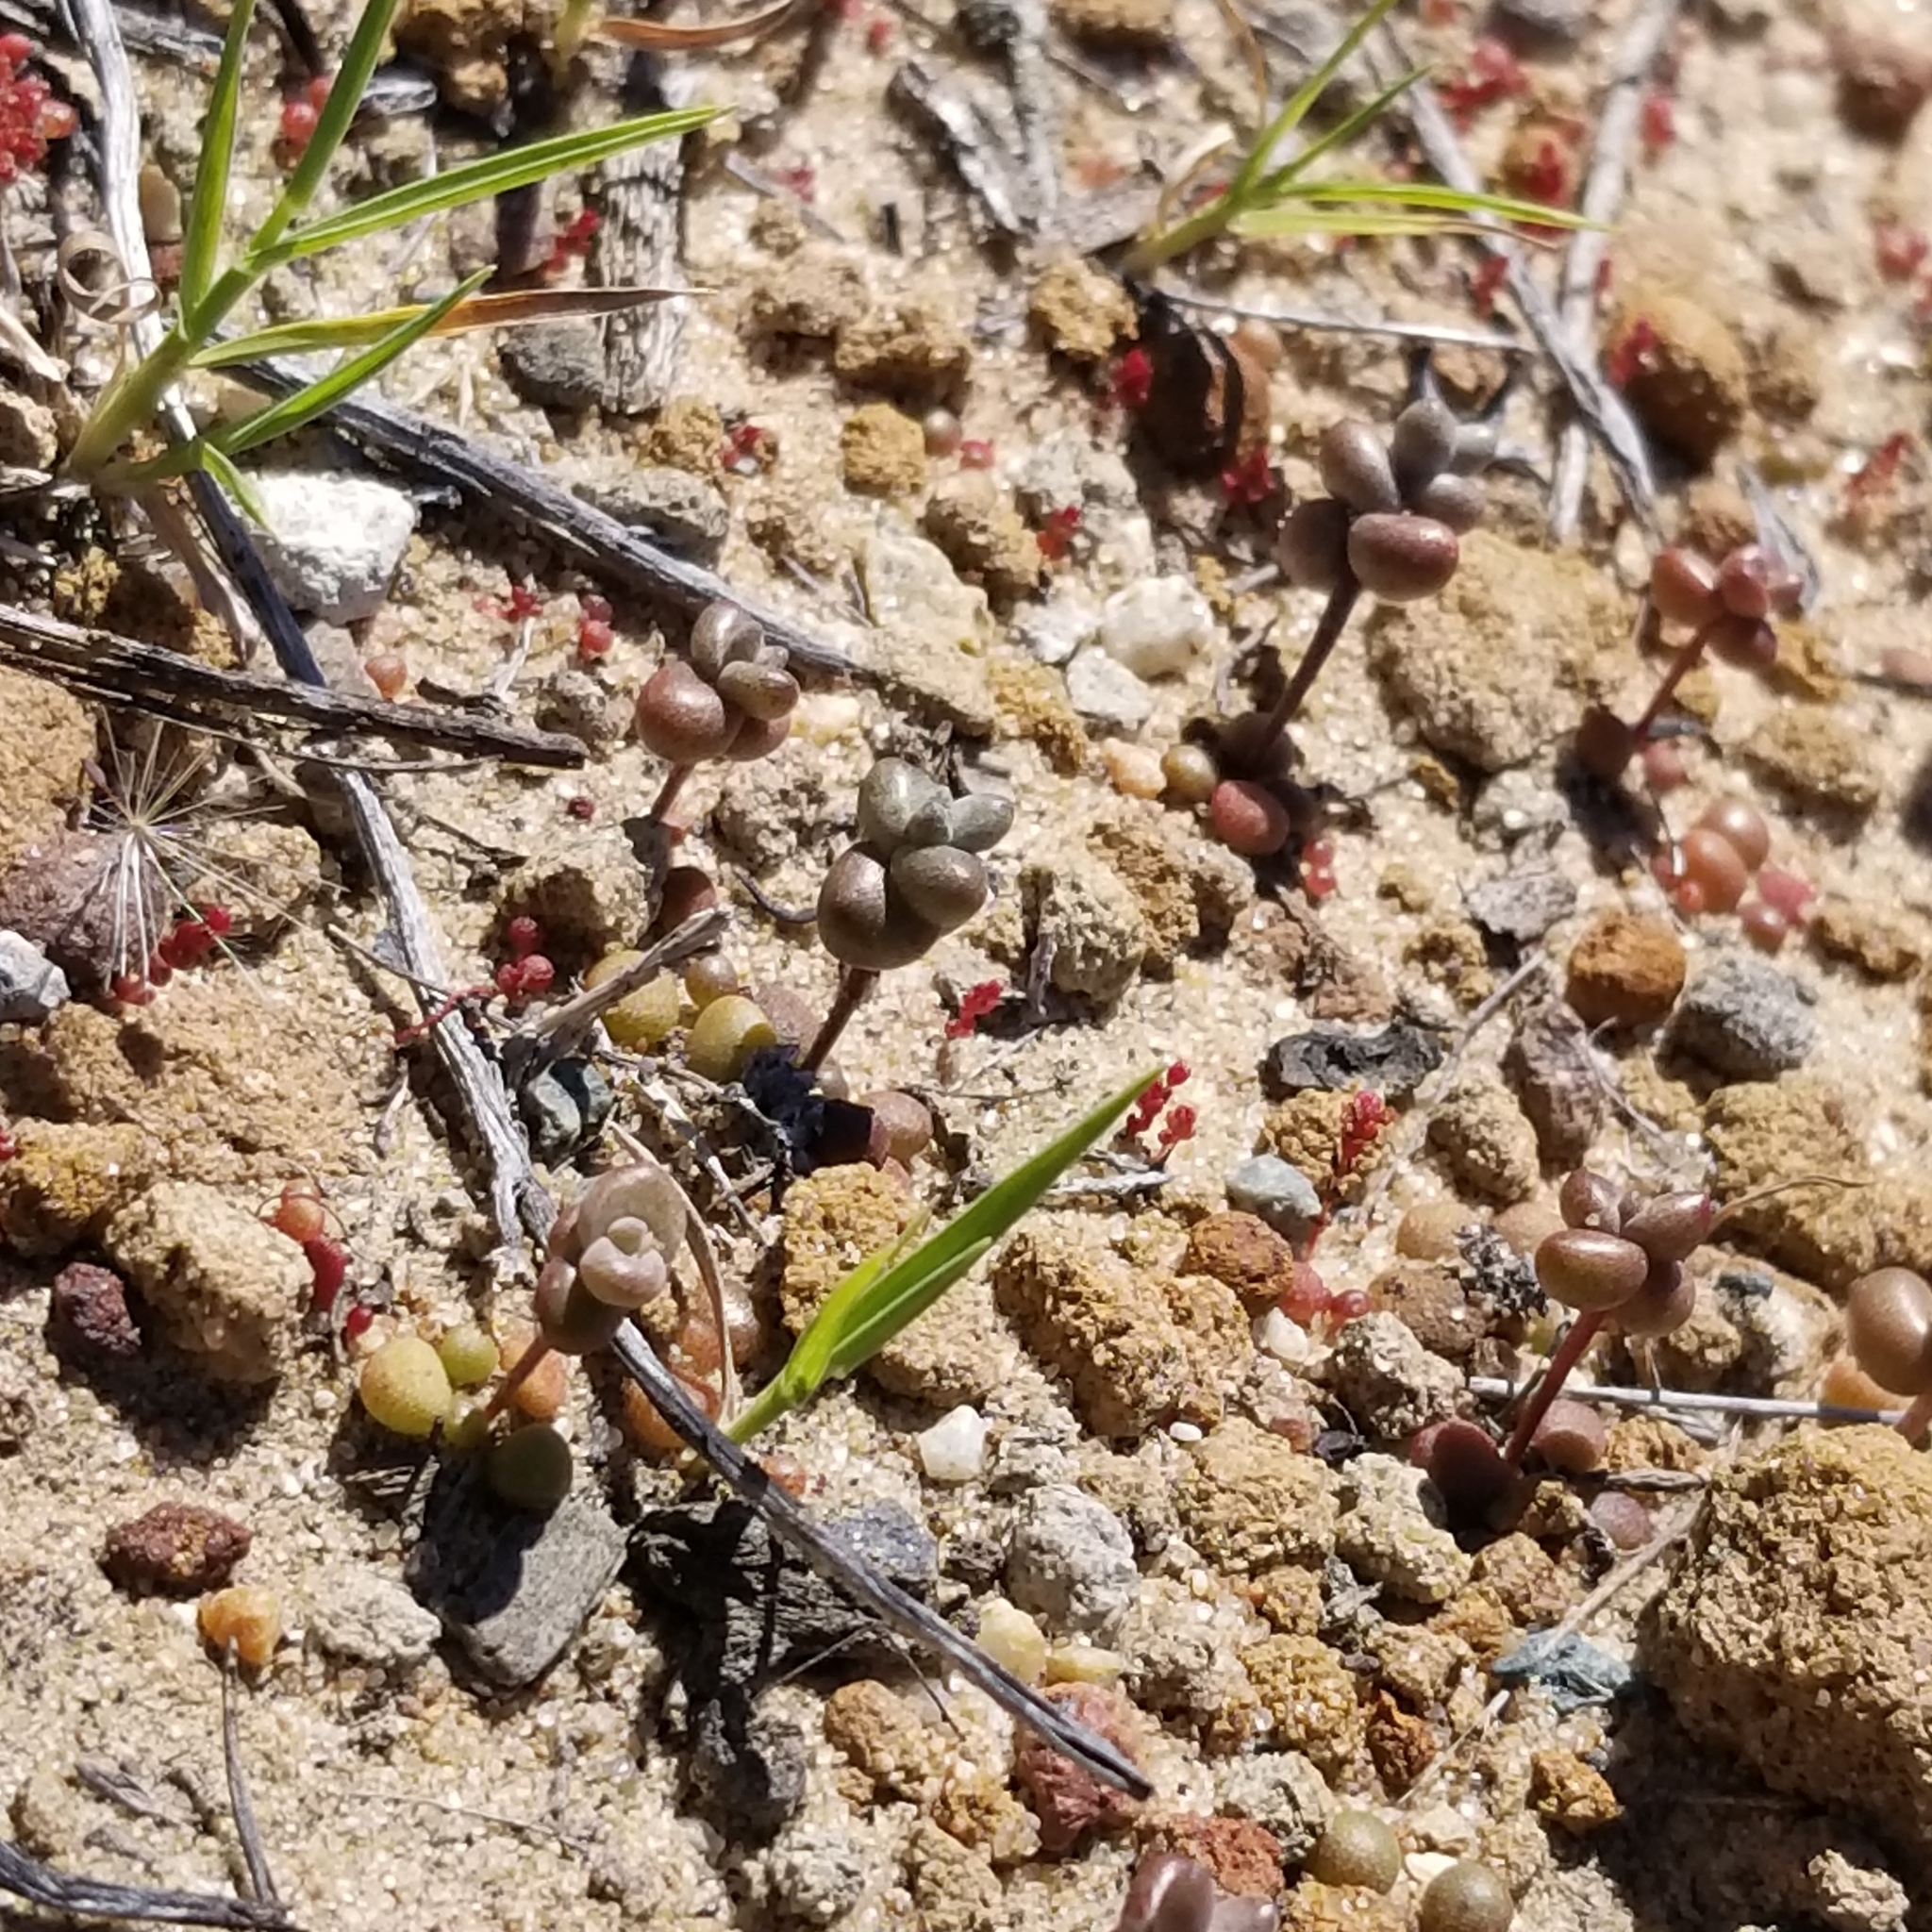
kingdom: Plantae
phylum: Tracheophyta
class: Magnoliopsida
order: Saxifragales
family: Crassulaceae
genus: Dudleya
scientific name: Dudleya blochmaniae
